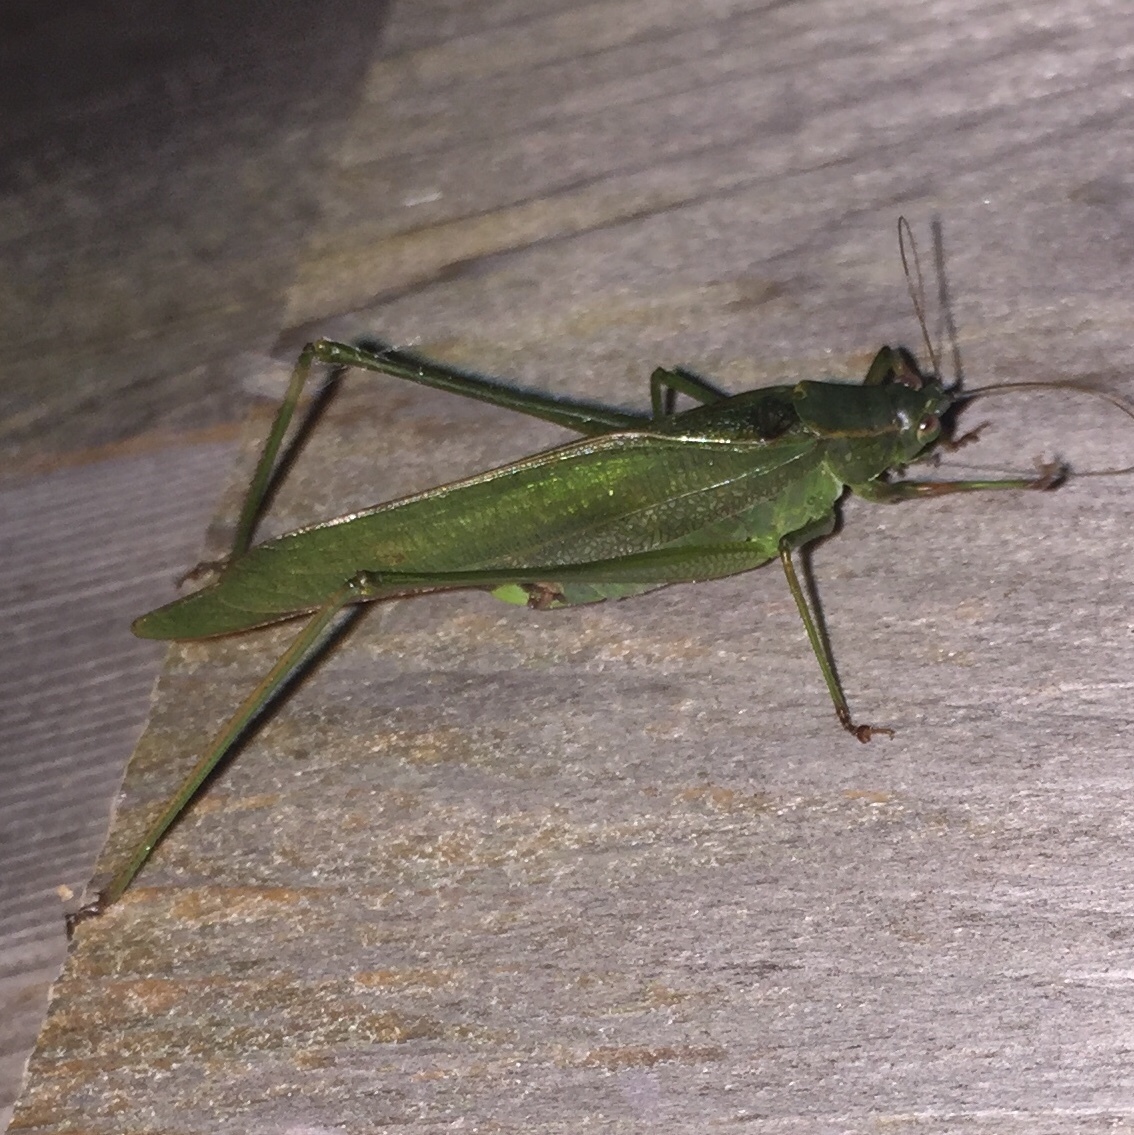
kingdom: Animalia
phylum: Arthropoda
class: Insecta
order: Orthoptera
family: Tettigoniidae
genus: Scudderia
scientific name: Scudderia furcata
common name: Fork-tailed bush katydid
